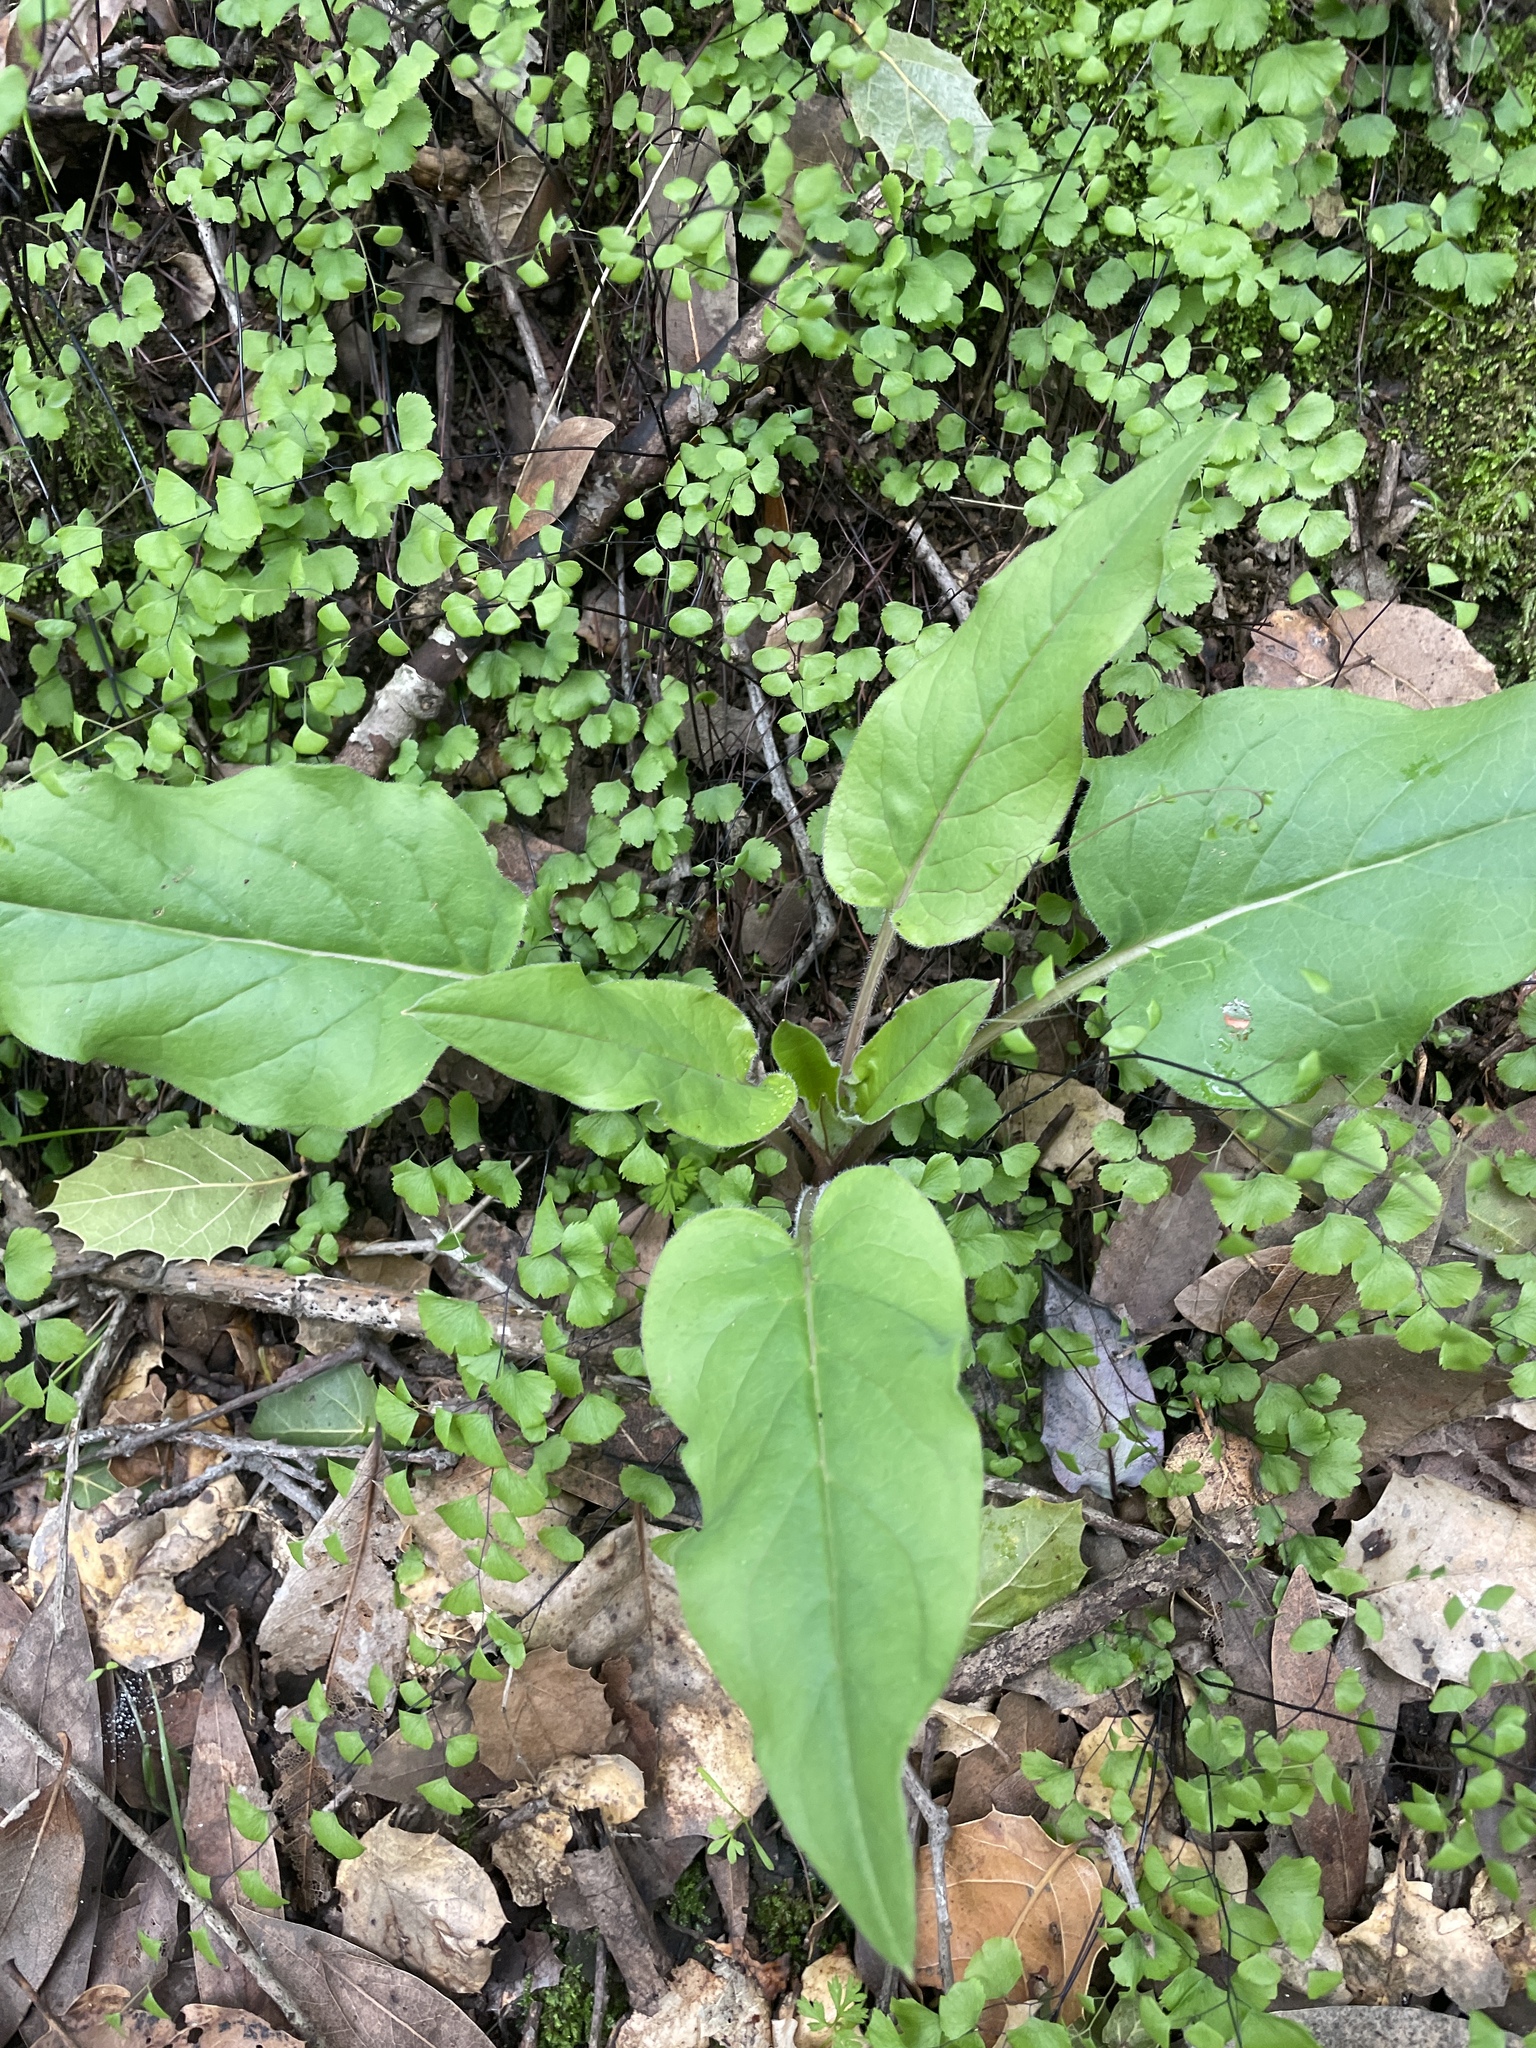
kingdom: Plantae
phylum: Tracheophyta
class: Magnoliopsida
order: Boraginales
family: Boraginaceae
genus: Adelinia
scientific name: Adelinia grande
